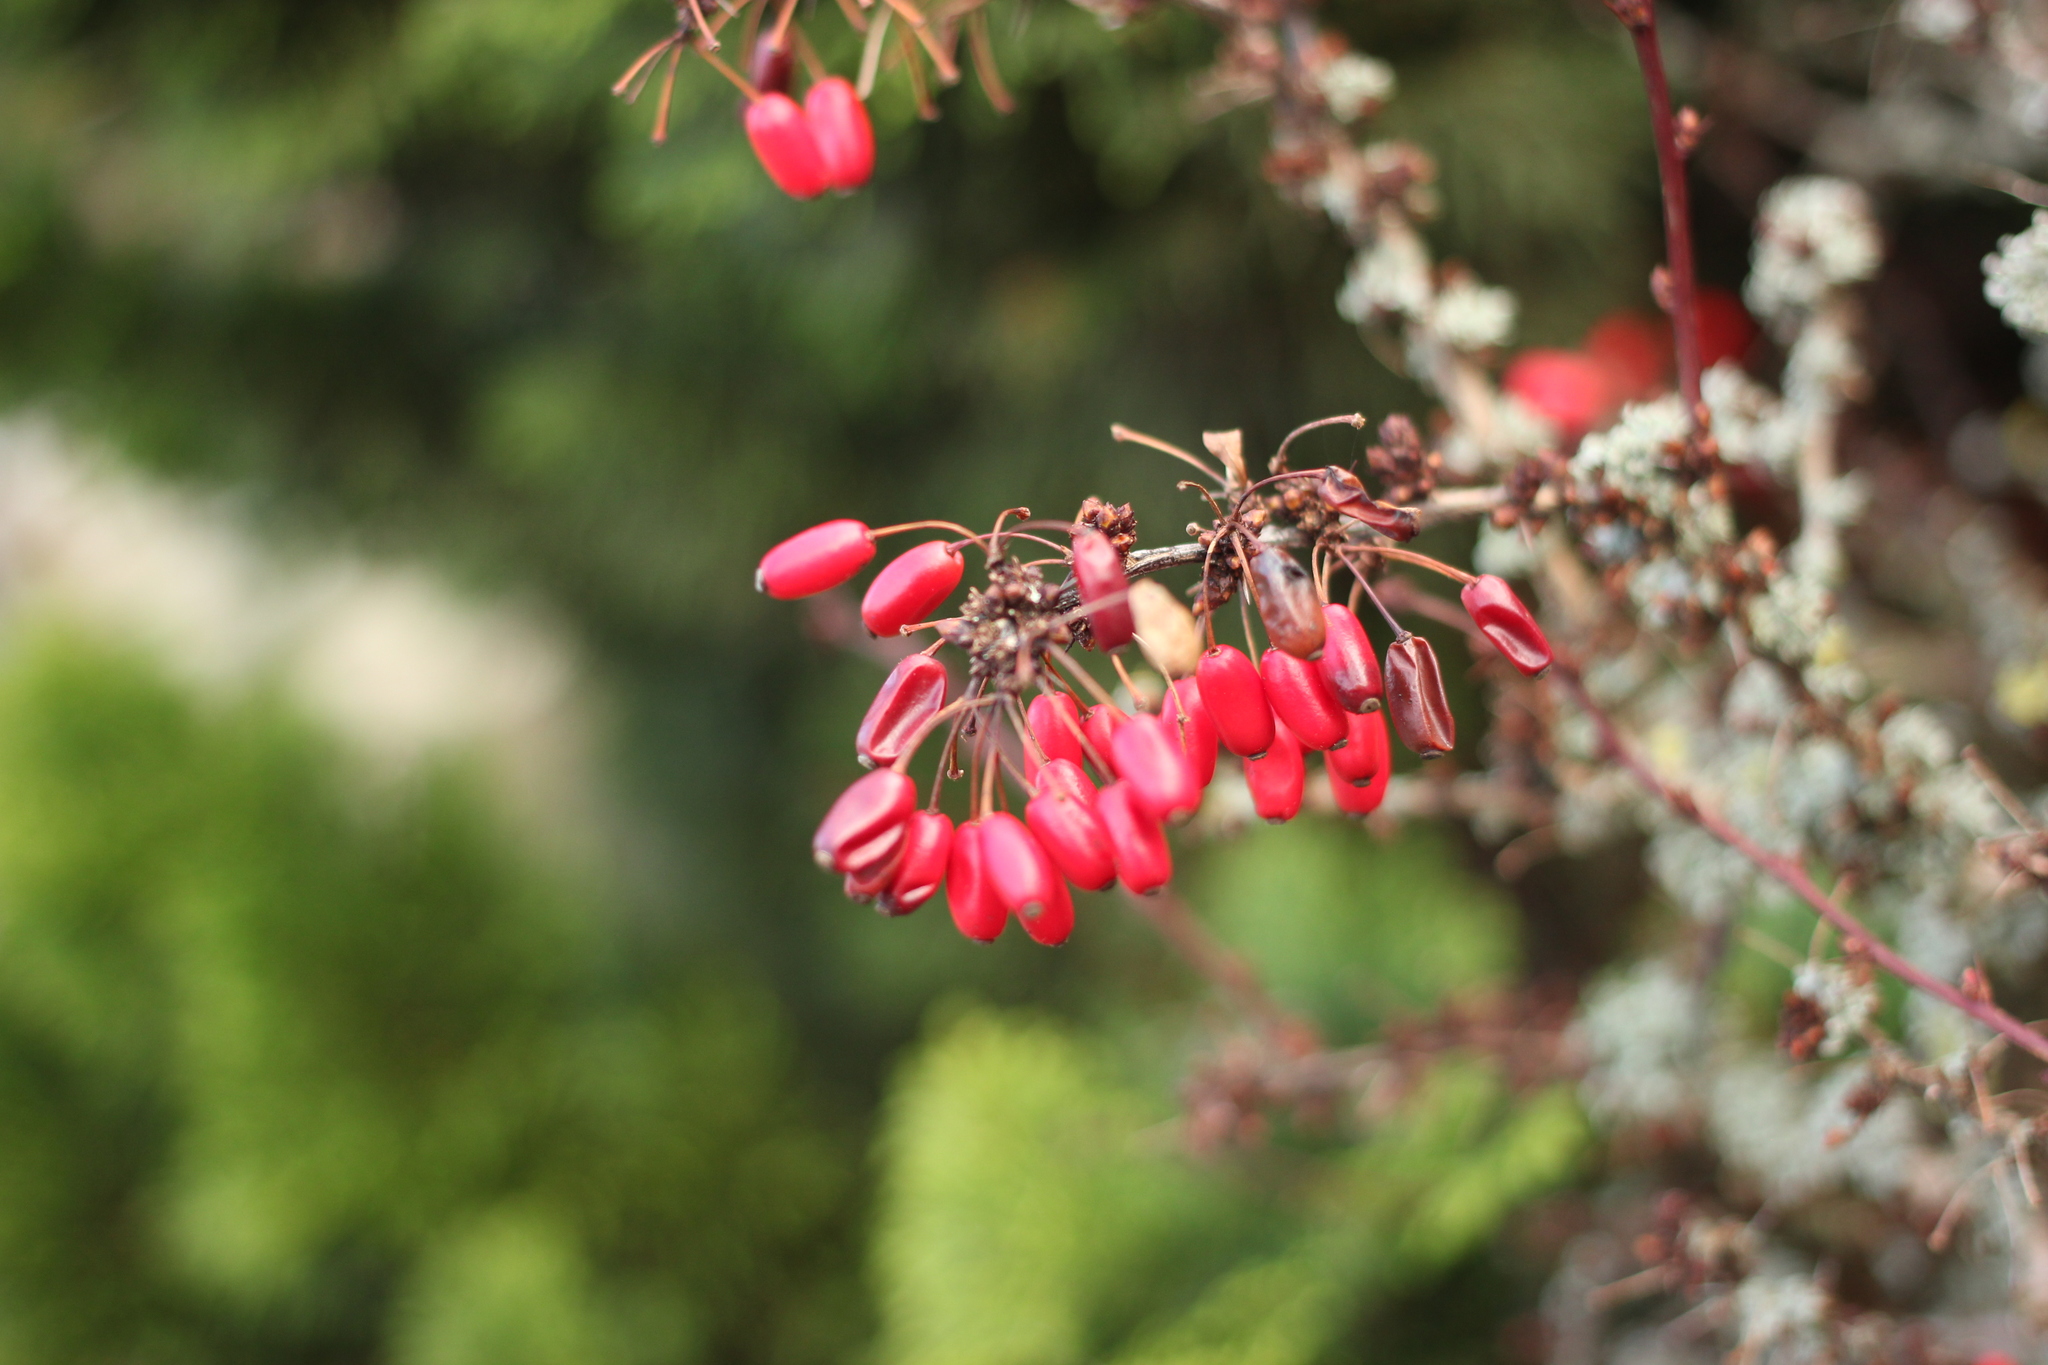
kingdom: Plantae
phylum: Tracheophyta
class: Magnoliopsida
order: Ranunculales
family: Berberidaceae
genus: Berberis
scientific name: Berberis vulgaris
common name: Barberry
